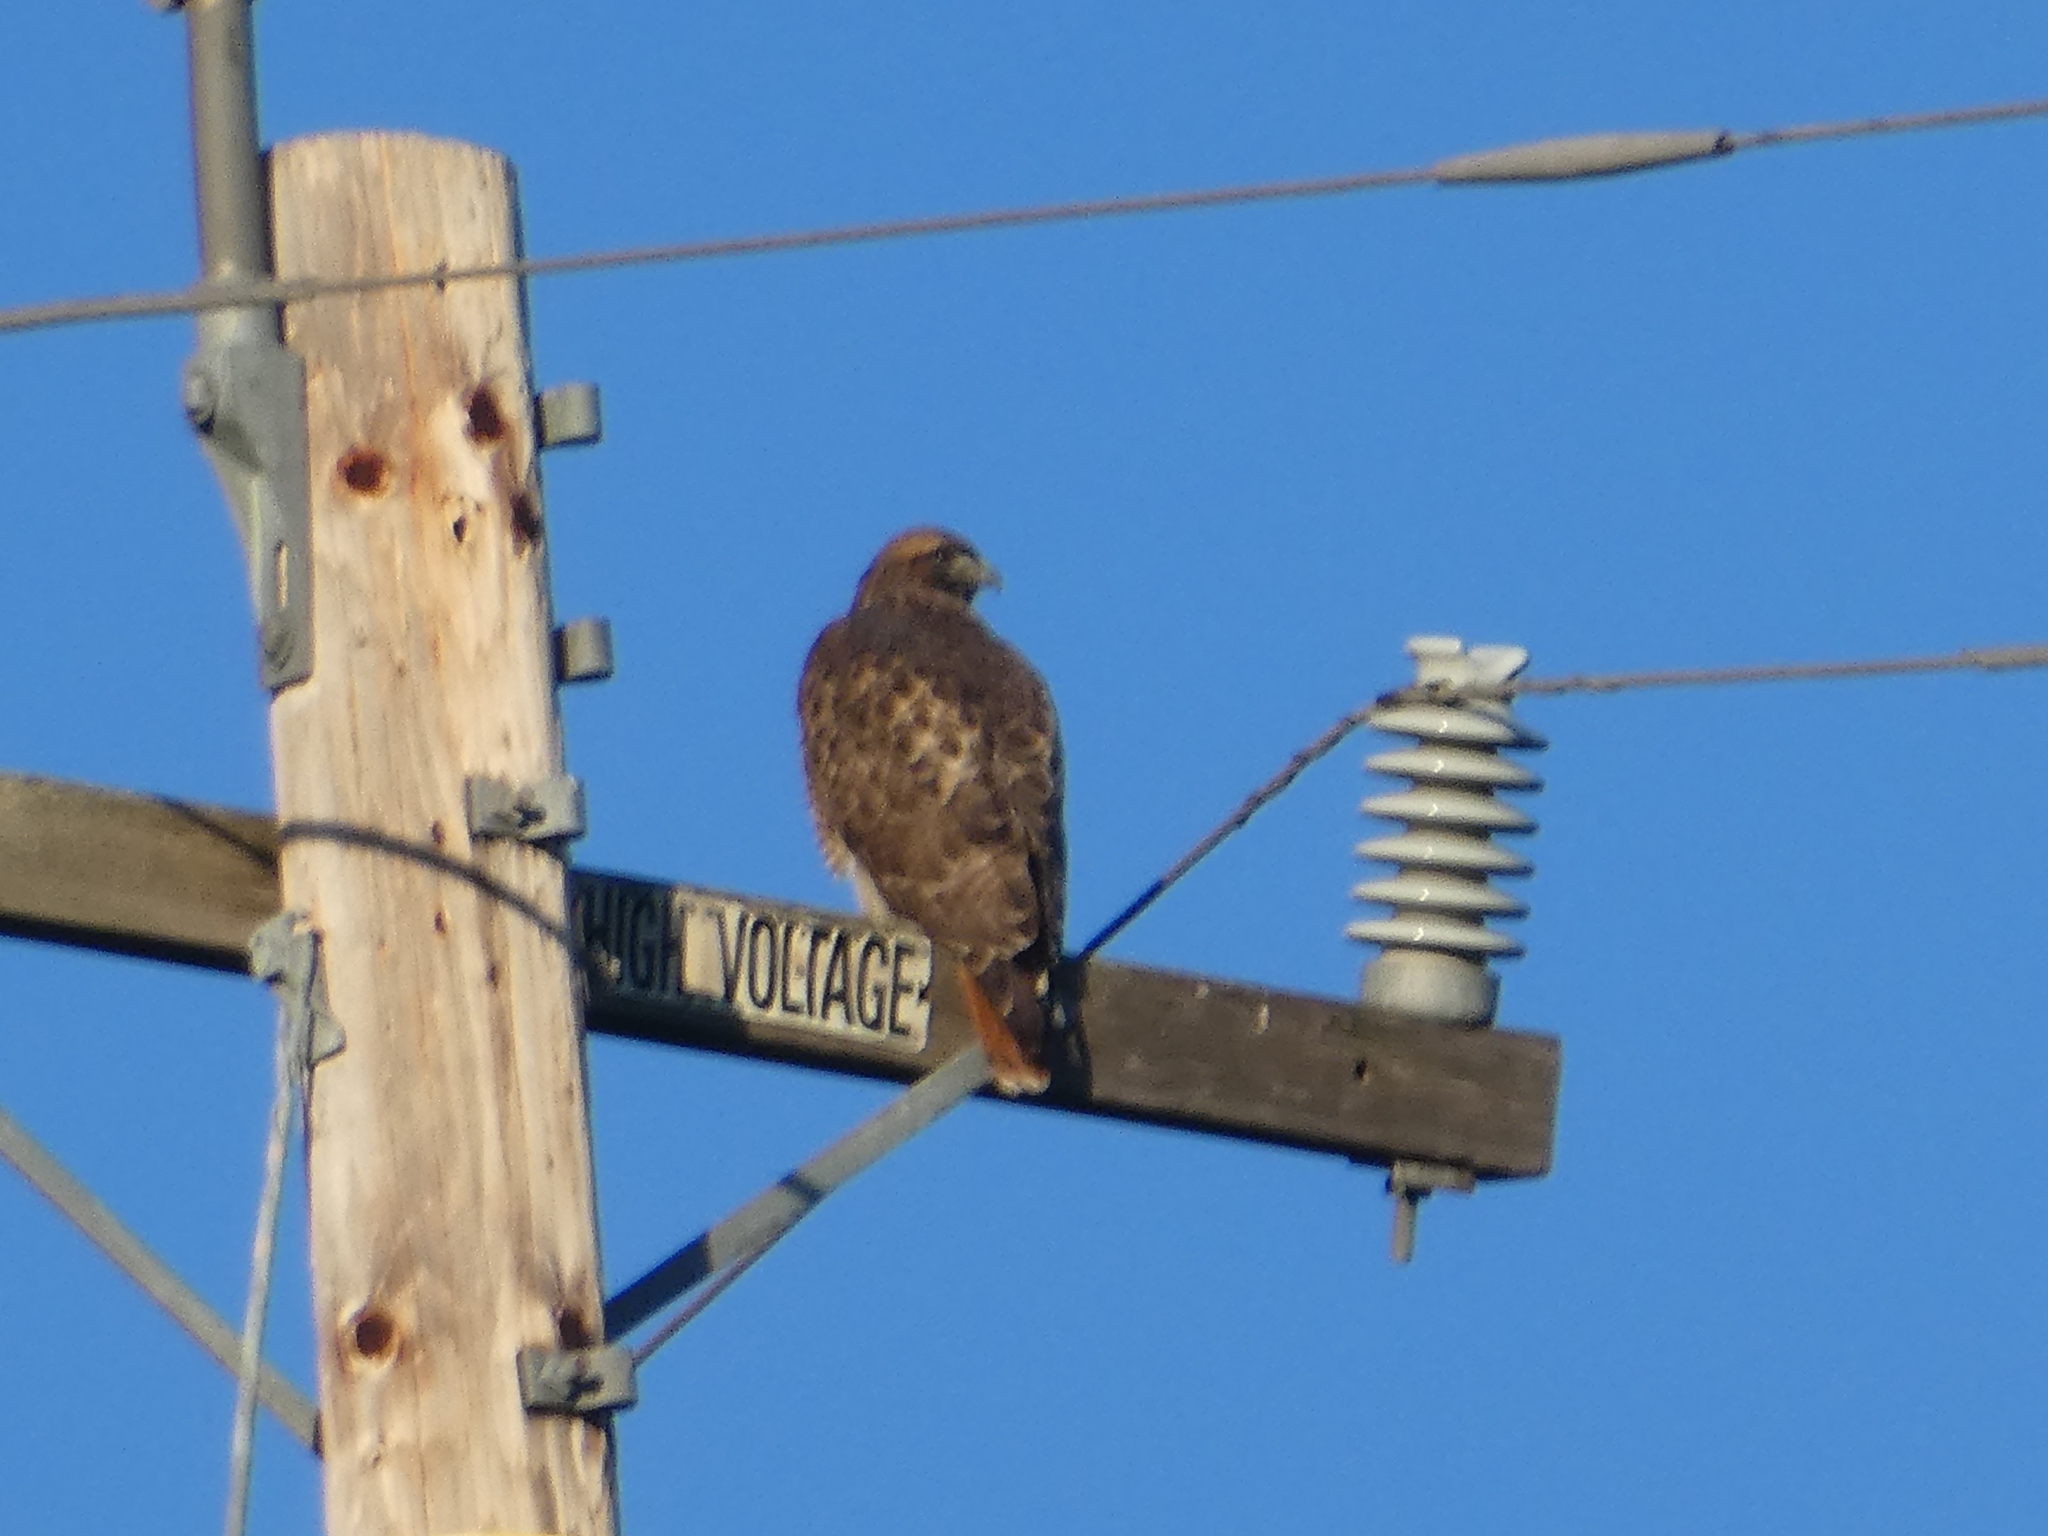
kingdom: Animalia
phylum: Chordata
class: Aves
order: Accipitriformes
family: Accipitridae
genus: Buteo
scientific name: Buteo jamaicensis
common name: Red-tailed hawk
